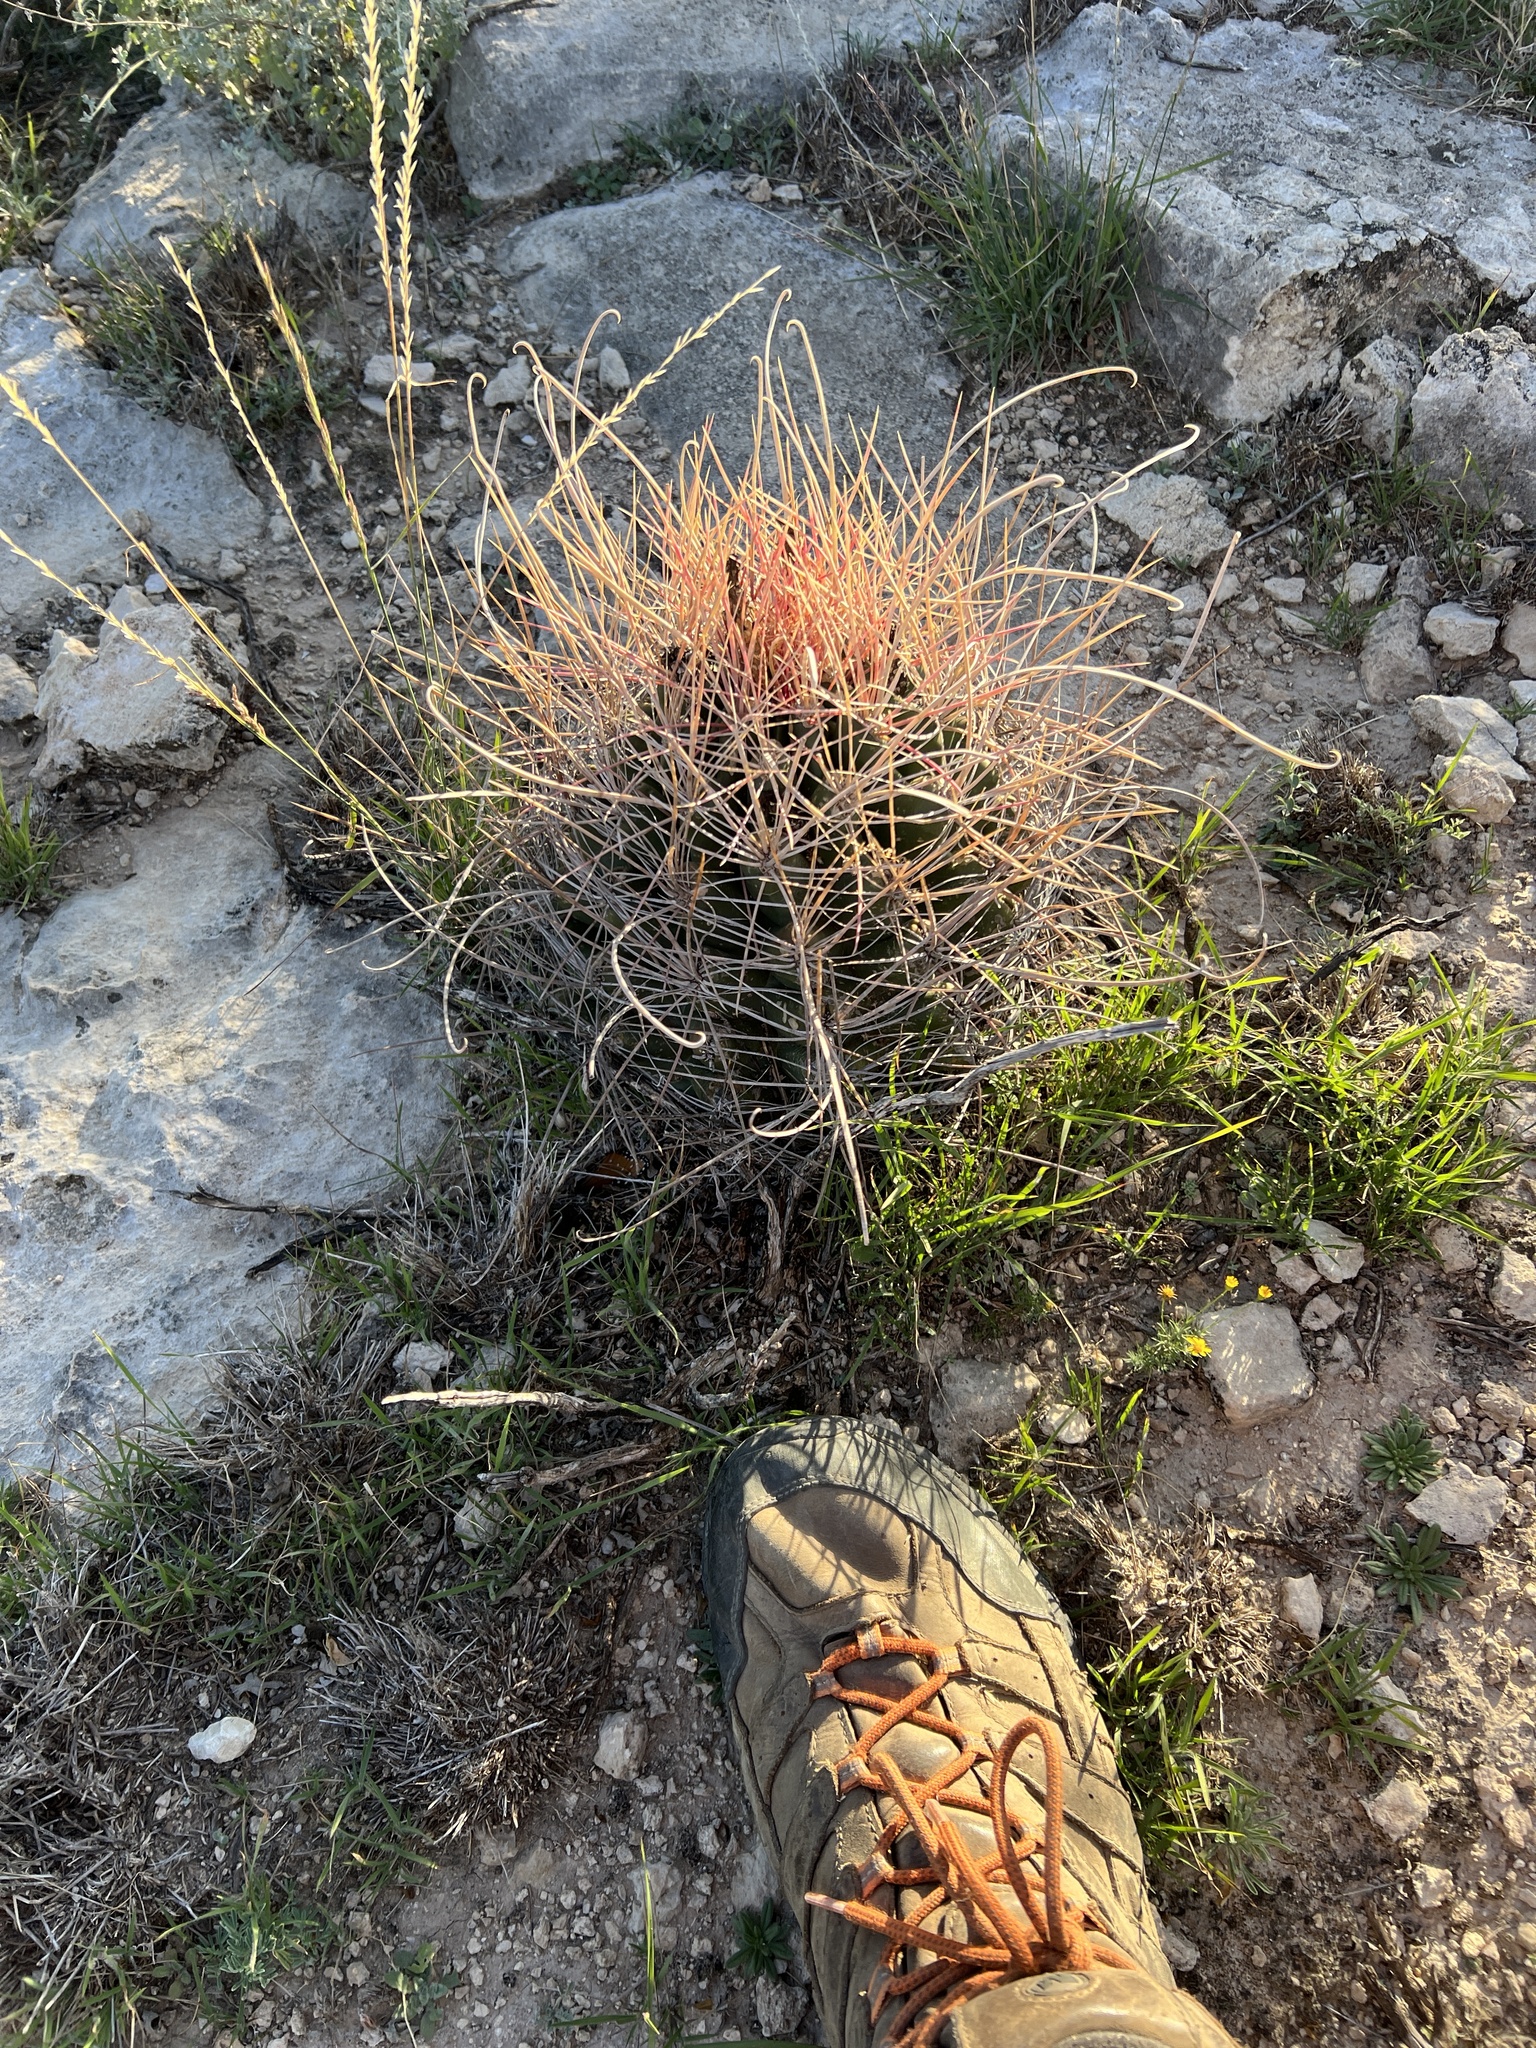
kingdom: Plantae
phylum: Tracheophyta
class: Magnoliopsida
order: Caryophyllales
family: Cactaceae
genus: Bisnaga
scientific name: Bisnaga hamatacantha
